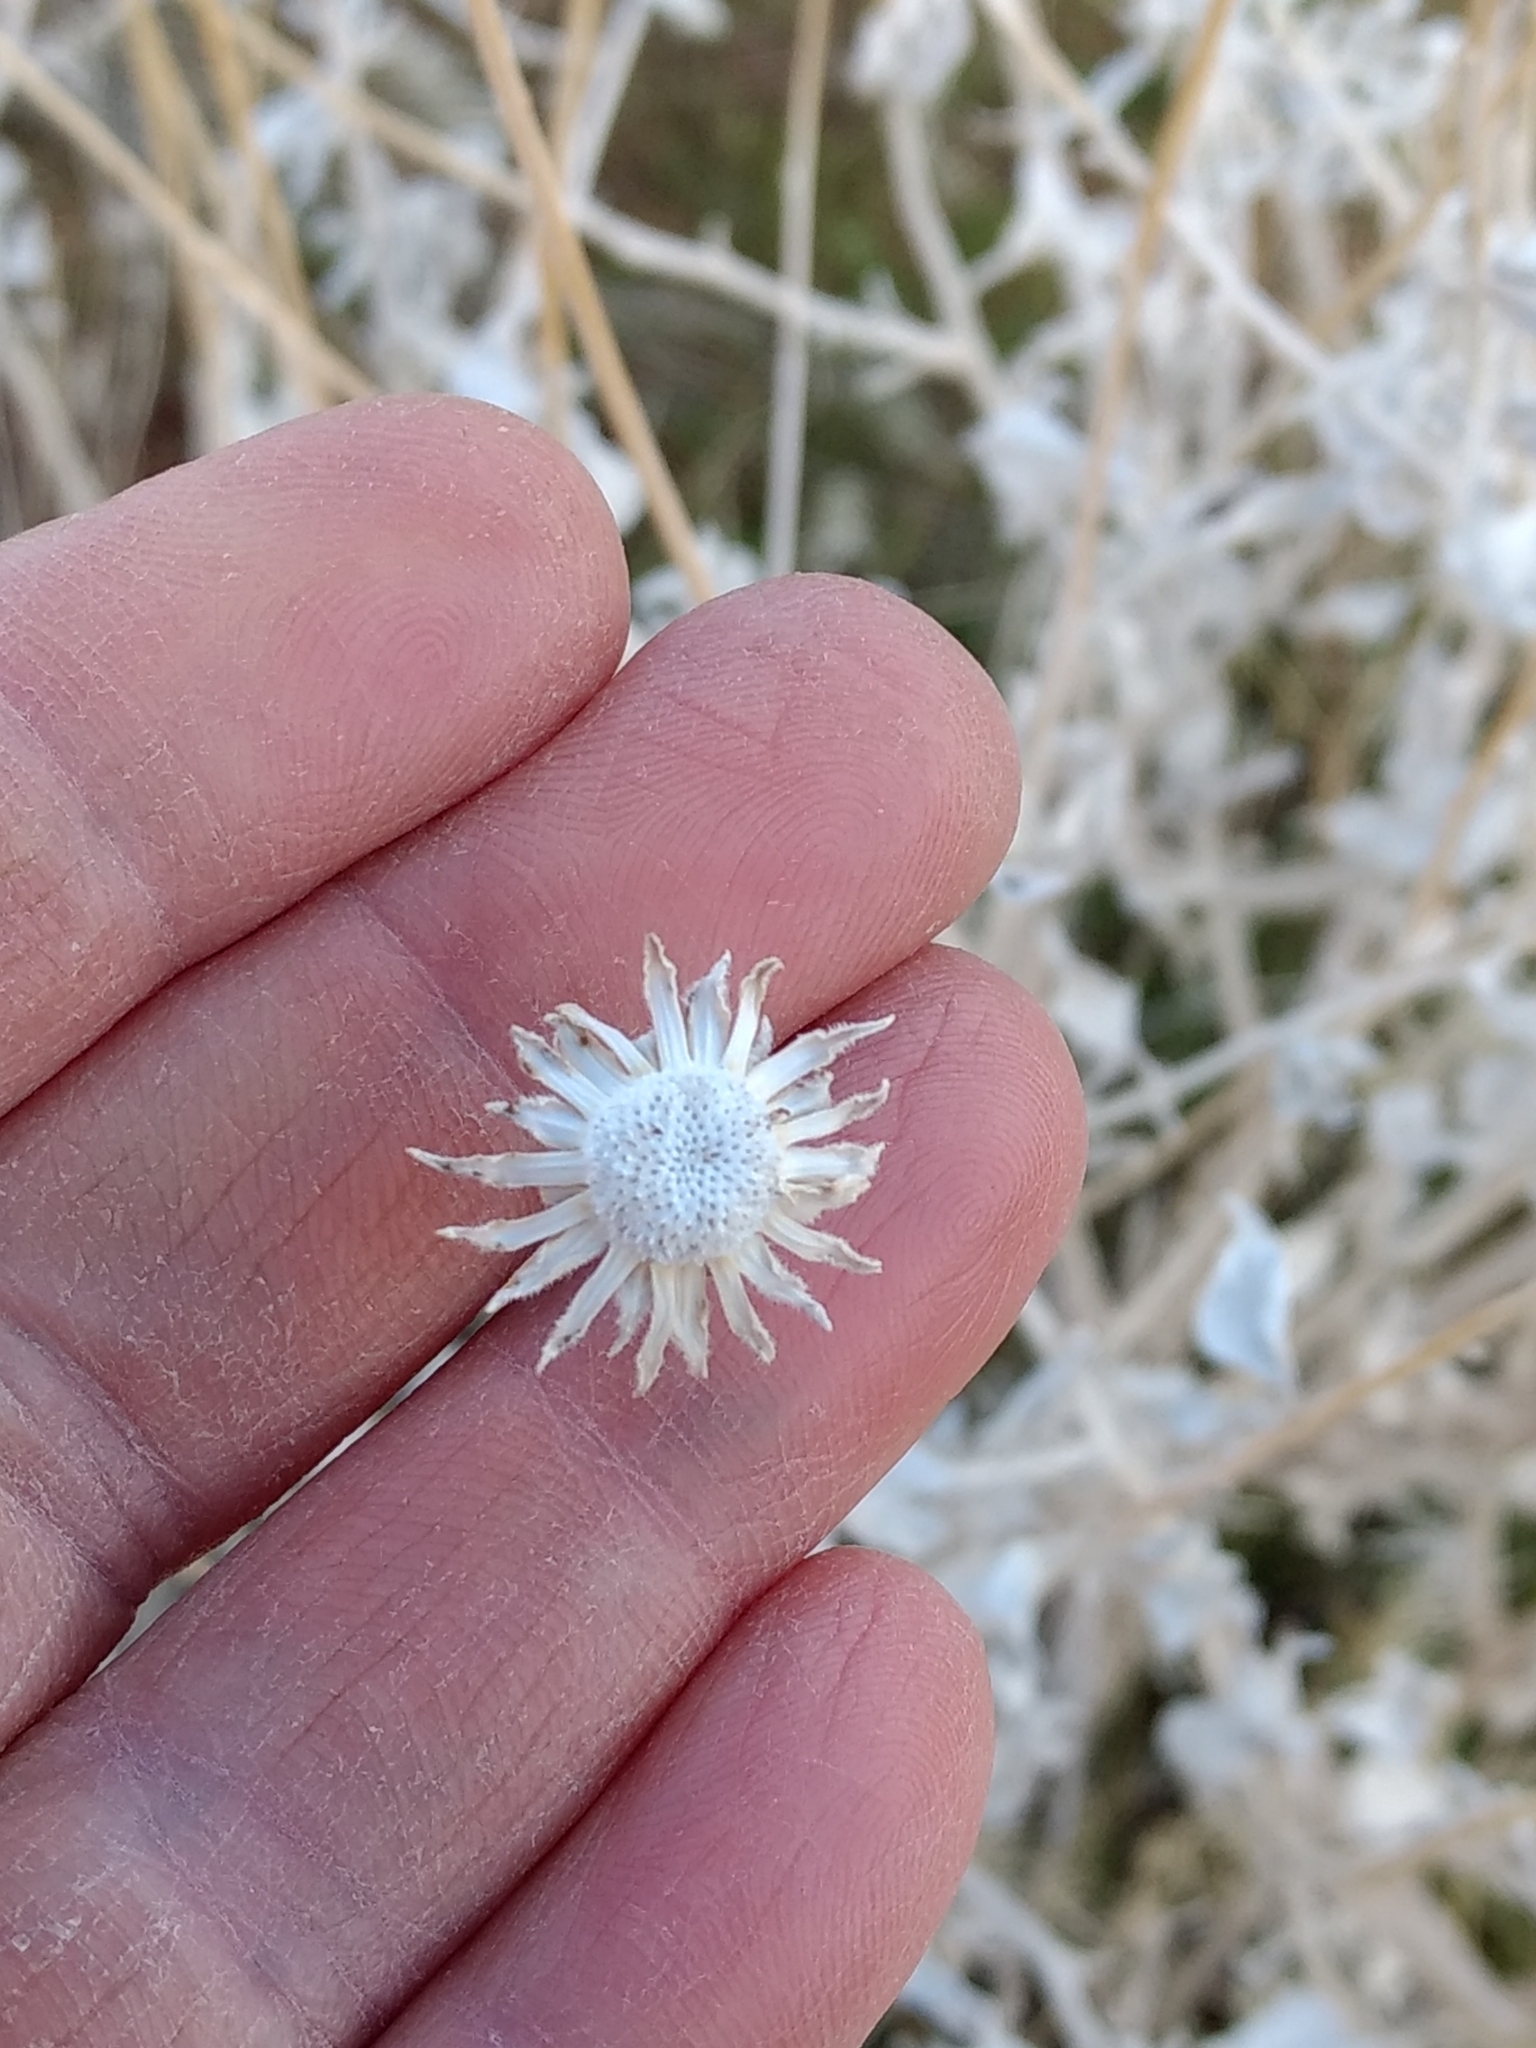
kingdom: Plantae
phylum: Tracheophyta
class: Magnoliopsida
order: Asterales
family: Asteraceae
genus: Encelia
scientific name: Encelia actoni
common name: Acton encelia
